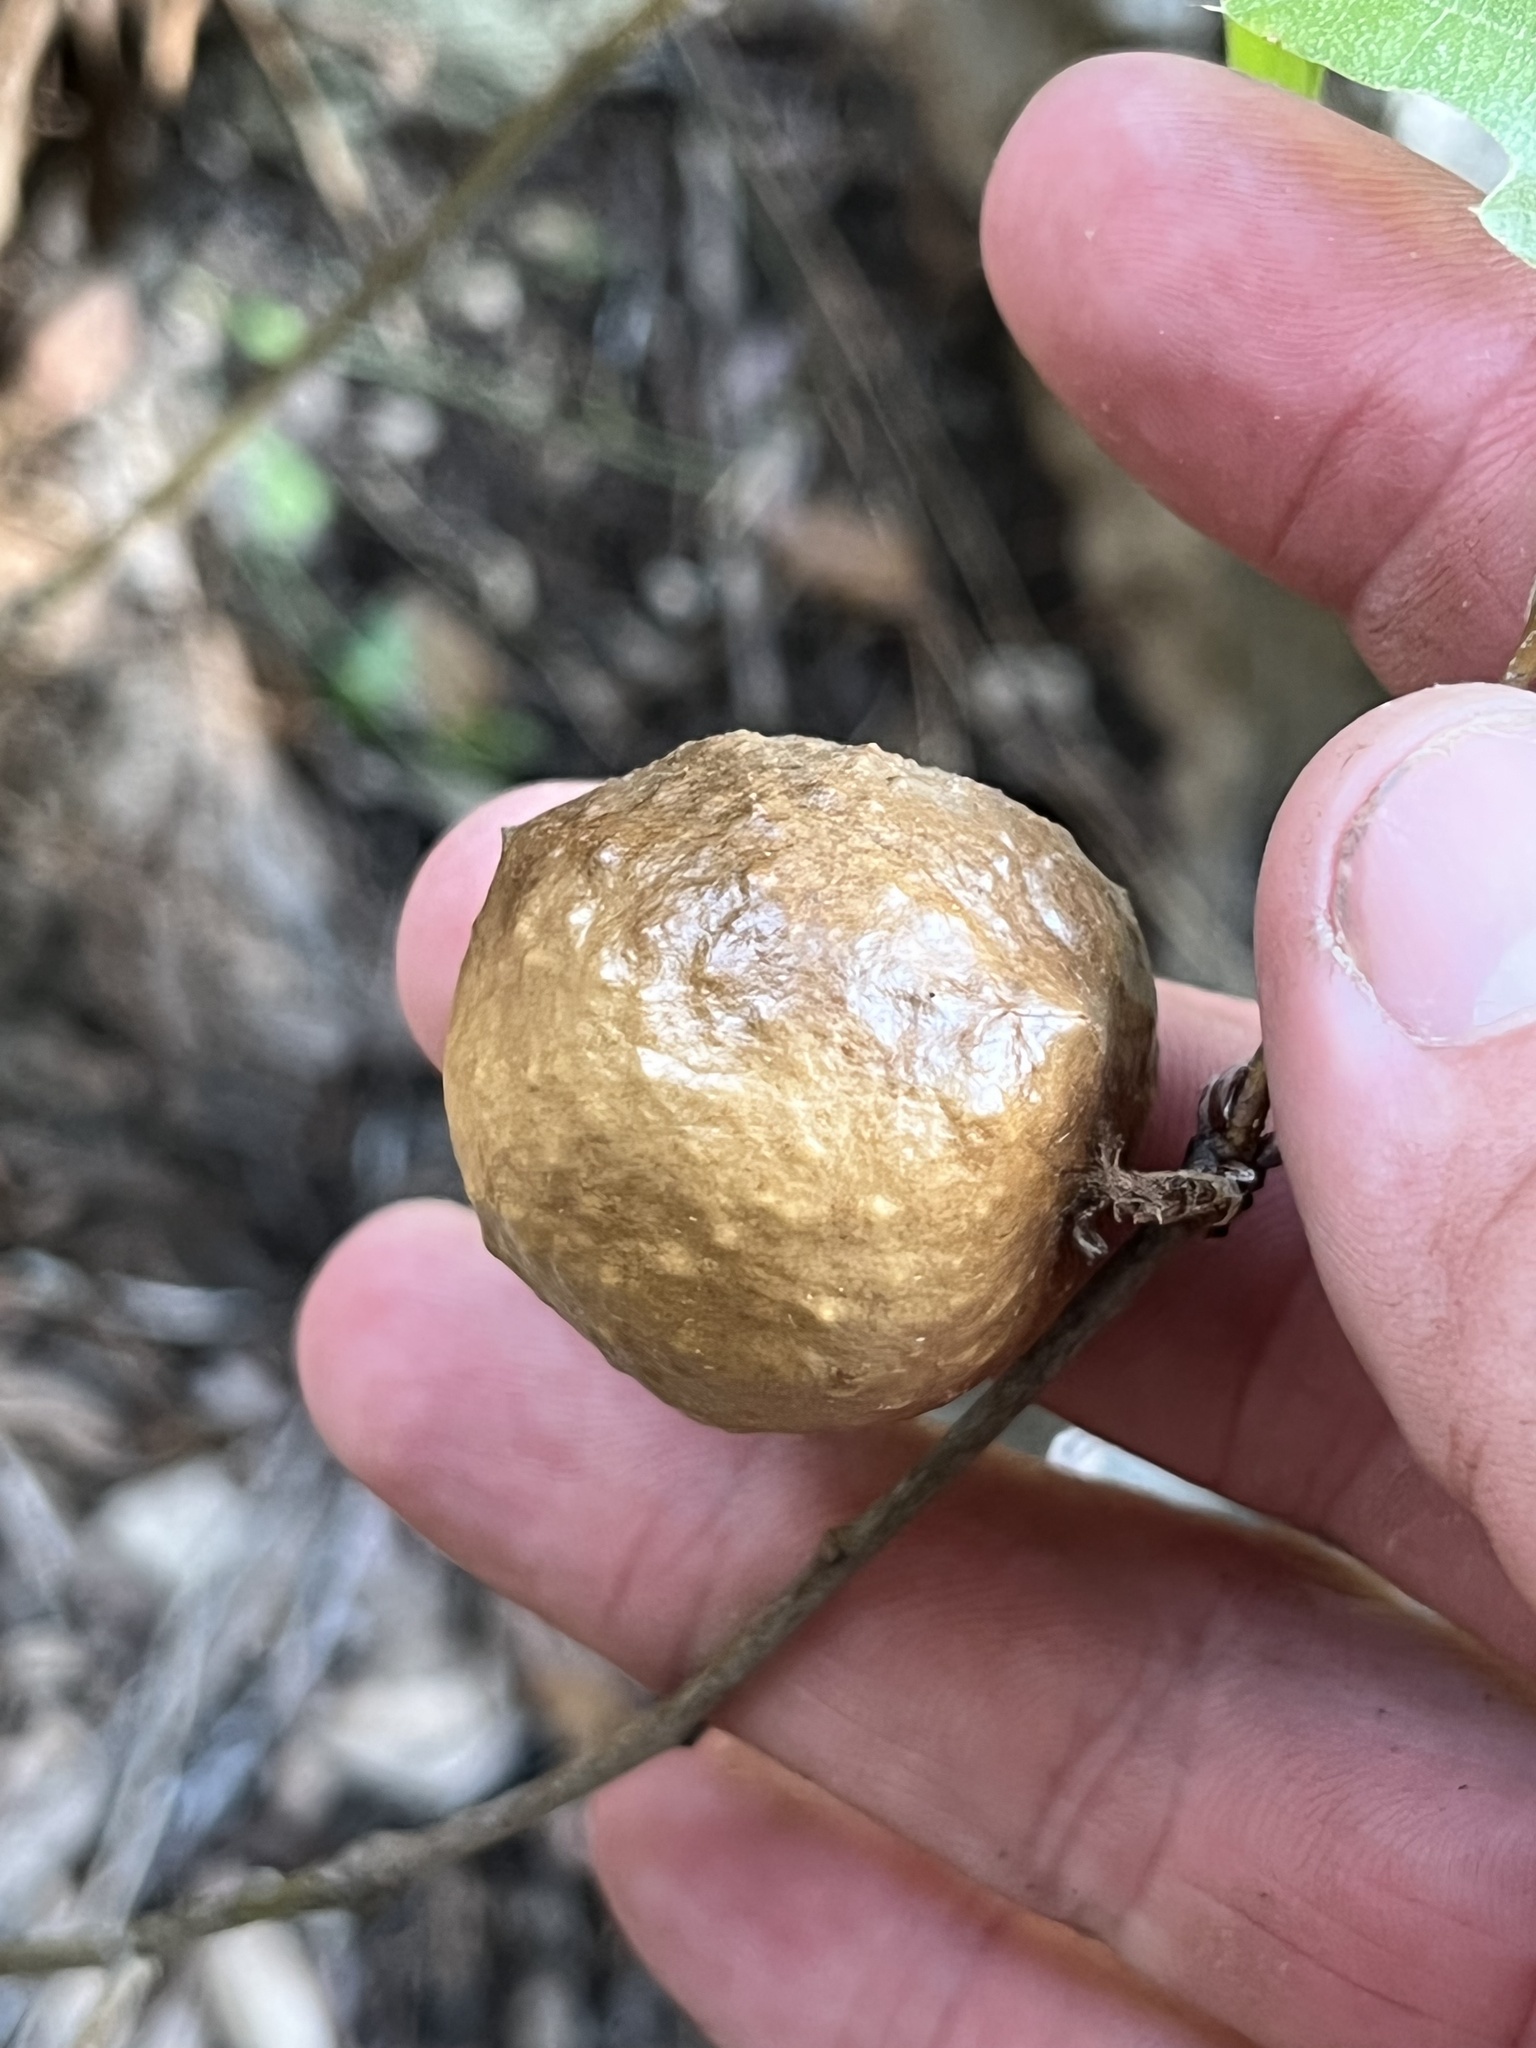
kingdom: Animalia
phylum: Arthropoda
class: Insecta
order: Hymenoptera
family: Cynipidae
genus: Amphibolips
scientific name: Amphibolips
